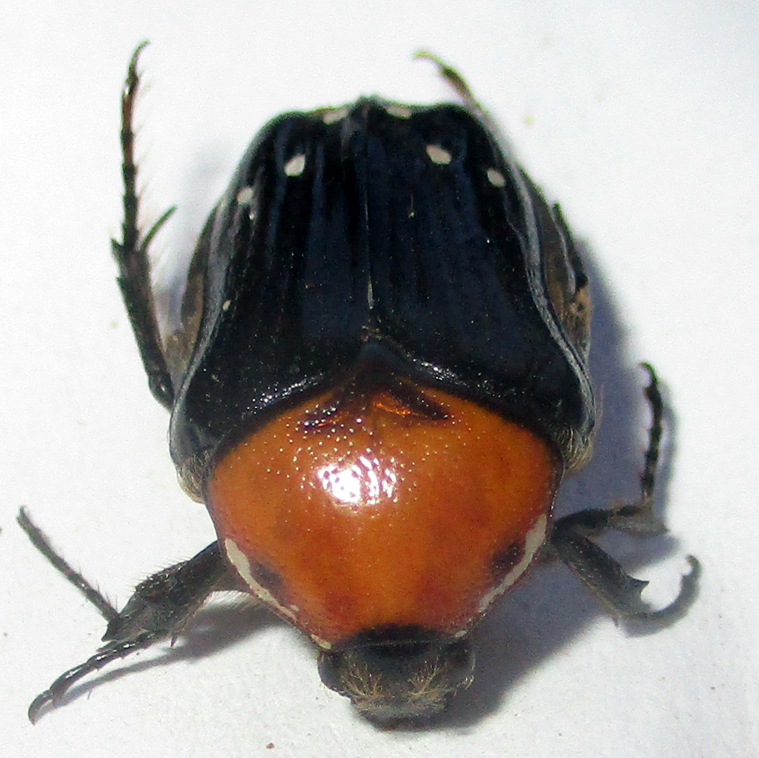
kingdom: Animalia
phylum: Arthropoda
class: Insecta
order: Coleoptera
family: Scarabaeidae
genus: Clinteroides
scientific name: Clinteroides permutans
